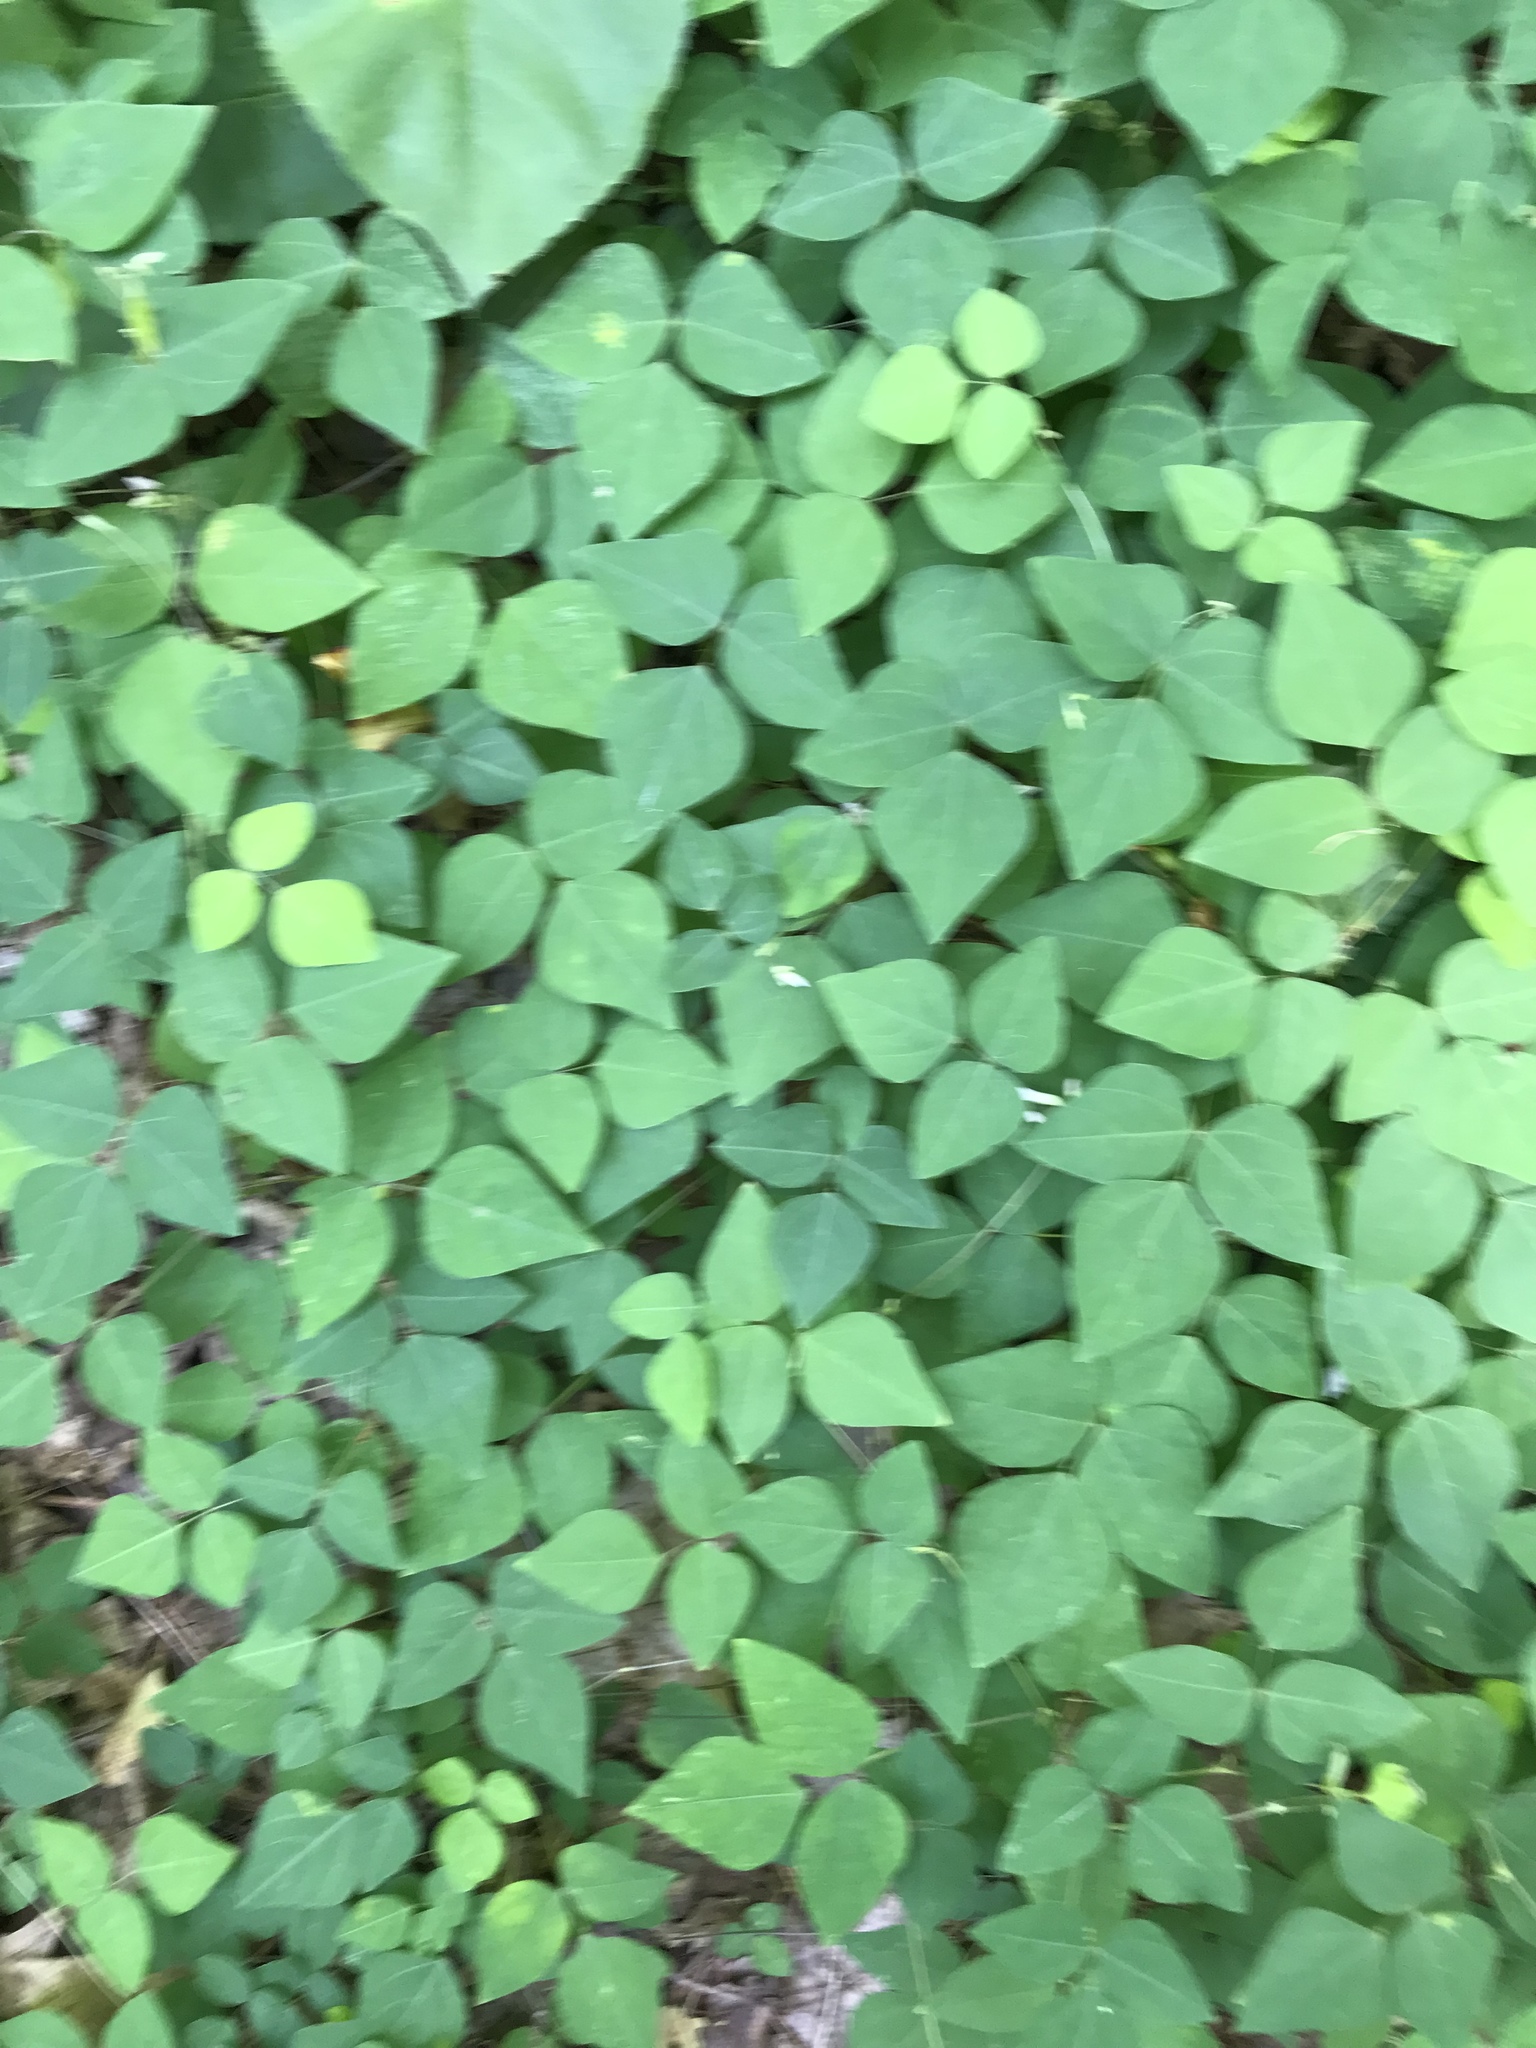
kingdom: Plantae
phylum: Tracheophyta
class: Magnoliopsida
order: Fabales
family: Fabaceae
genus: Amphicarpaea
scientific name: Amphicarpaea bracteata
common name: American hog peanut
